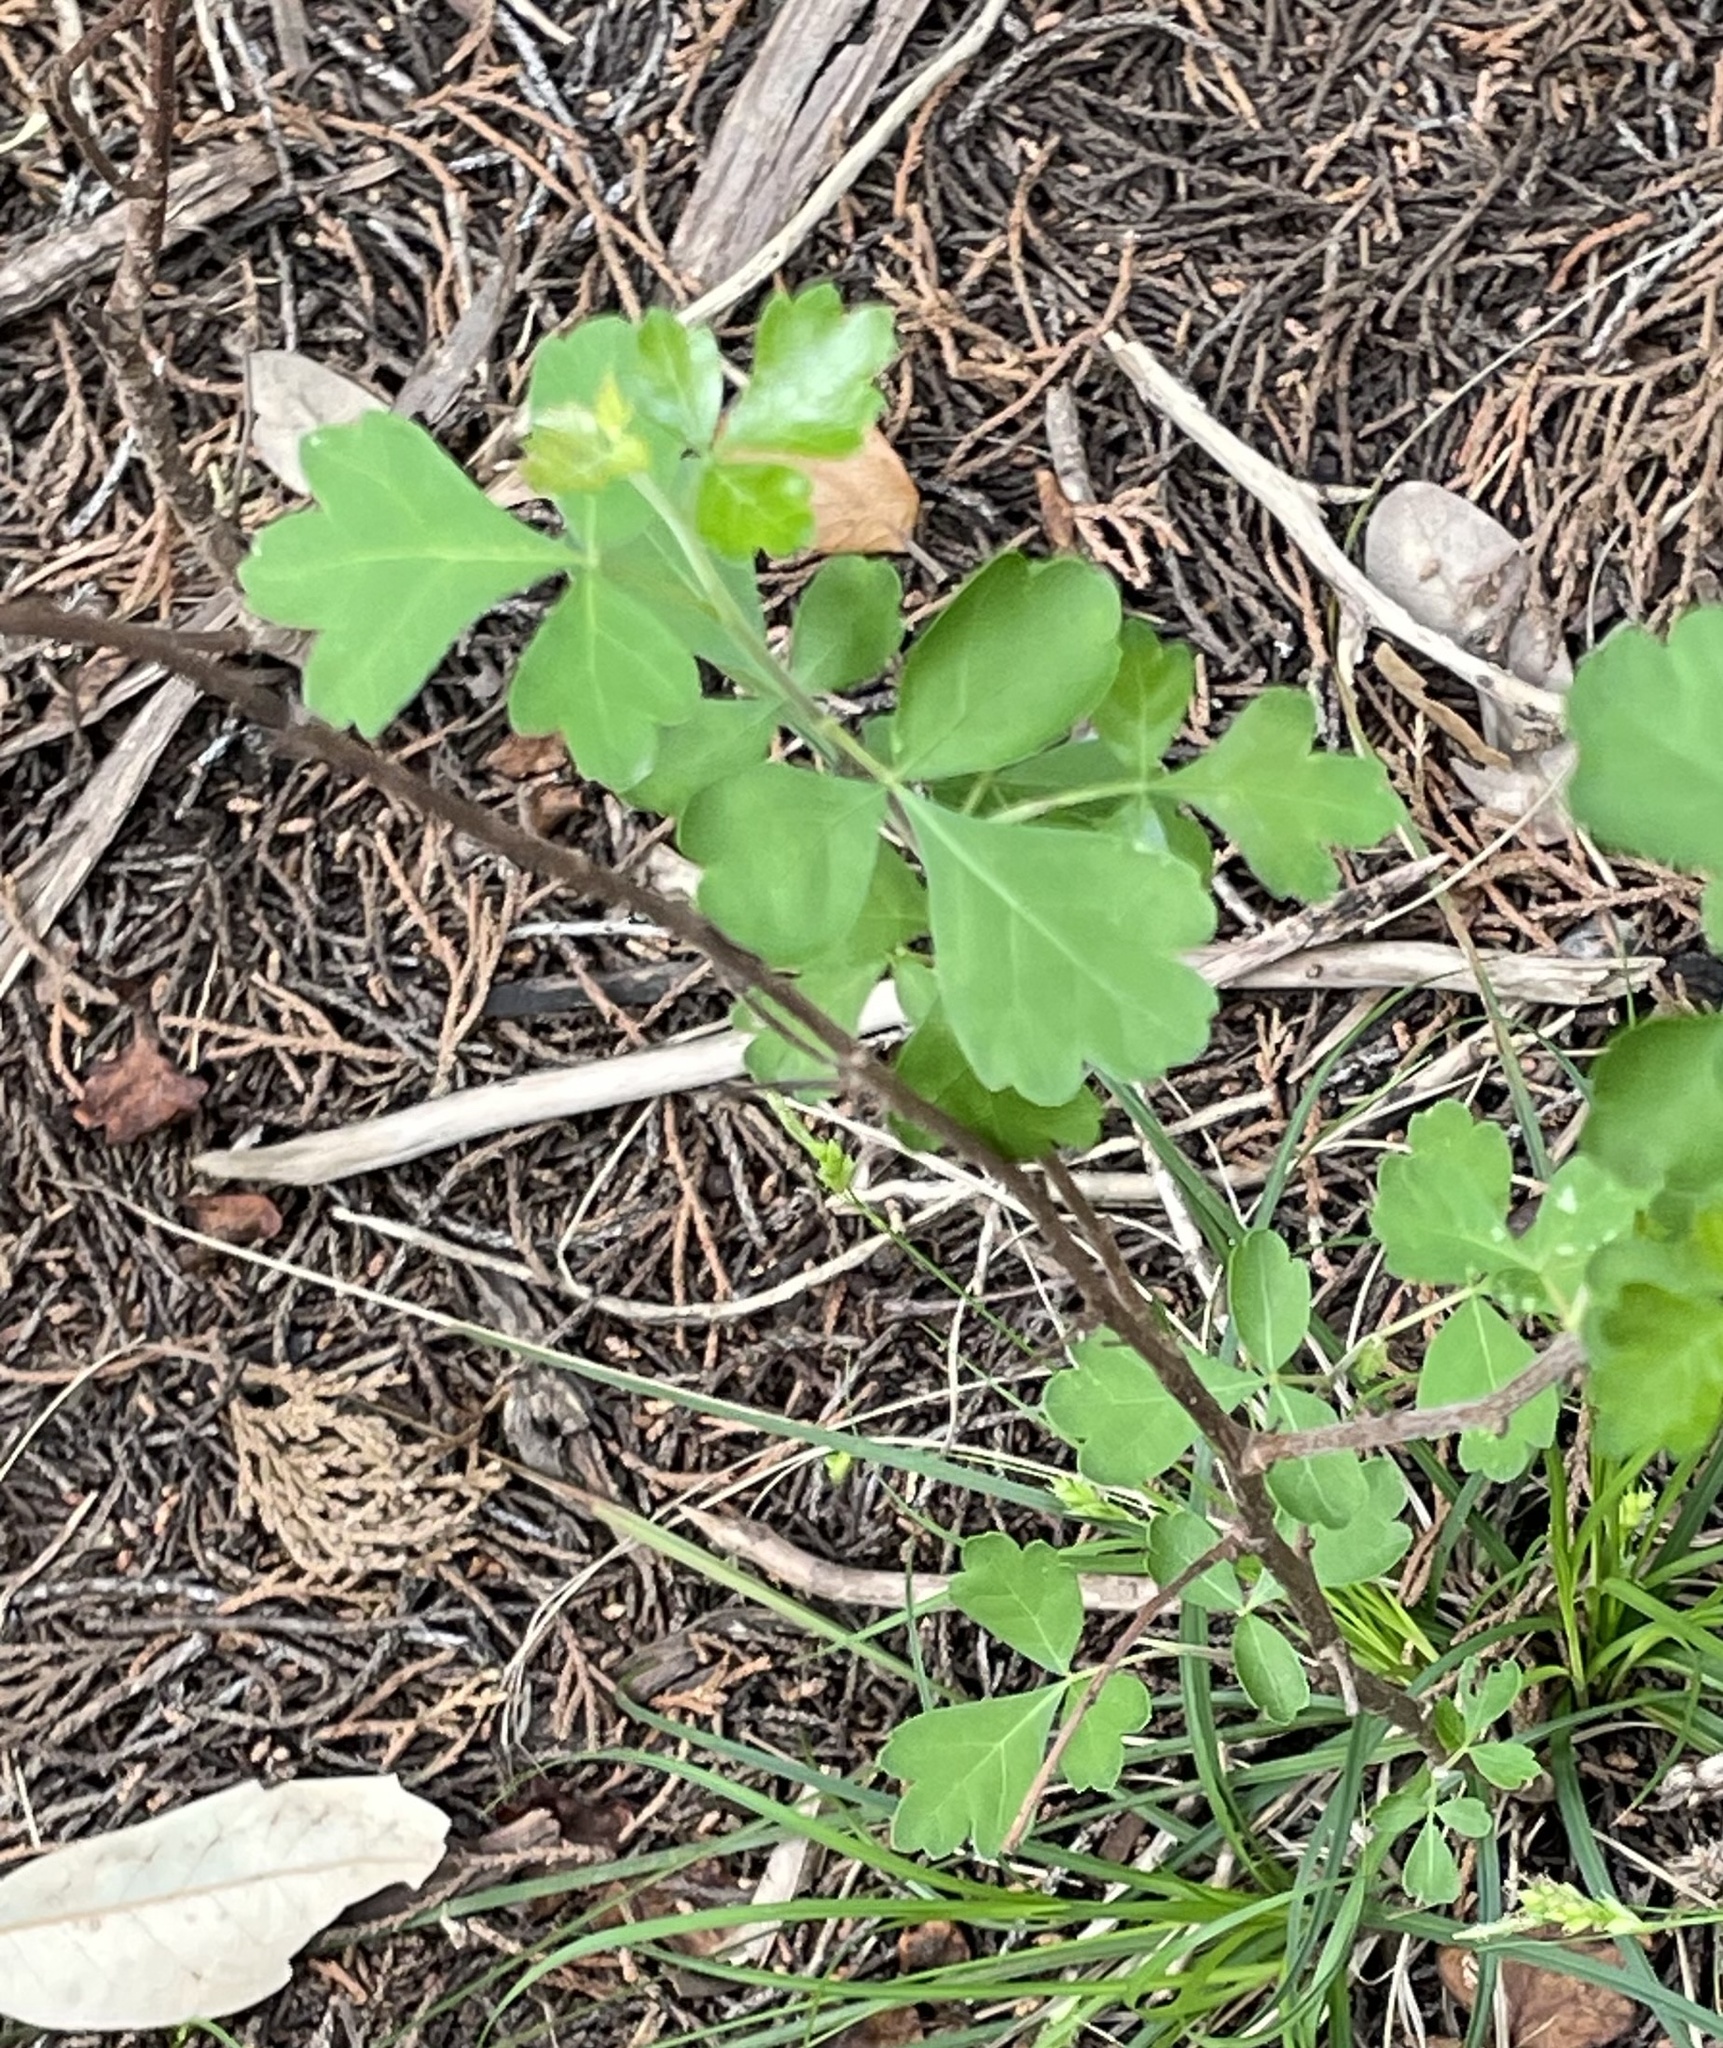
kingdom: Plantae
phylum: Tracheophyta
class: Magnoliopsida
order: Sapindales
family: Anacardiaceae
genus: Rhus
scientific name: Rhus aromatica
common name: Aromatic sumac
